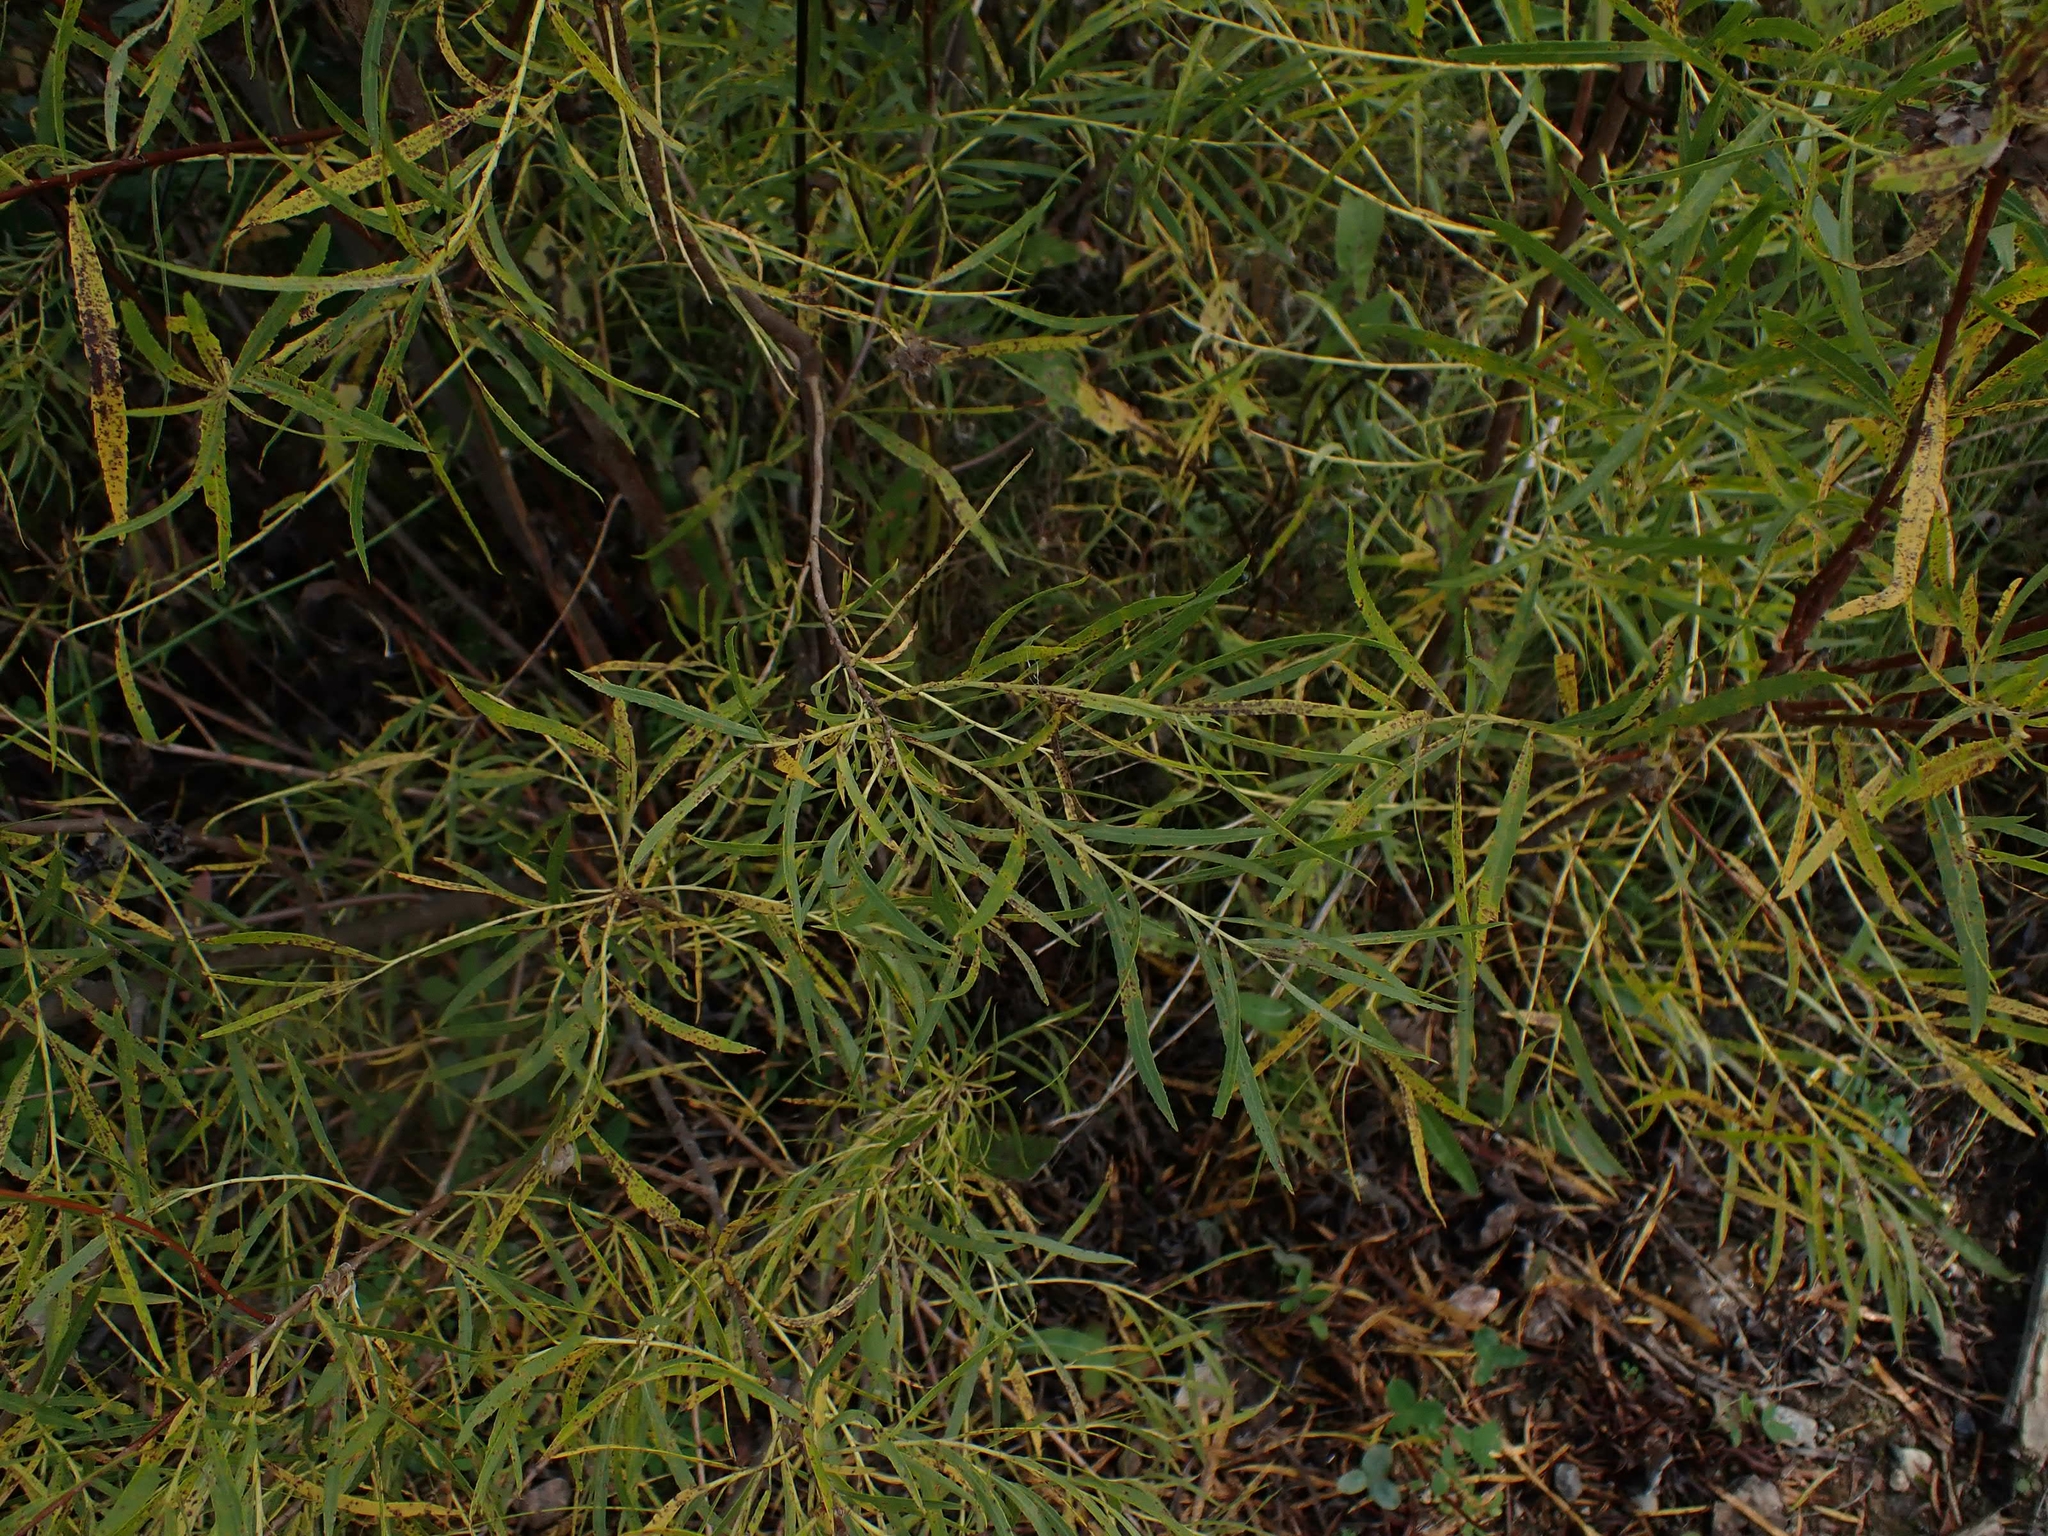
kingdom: Plantae
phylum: Tracheophyta
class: Magnoliopsida
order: Malpighiales
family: Salicaceae
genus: Salix
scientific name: Salix interior
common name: Sandbar willow
